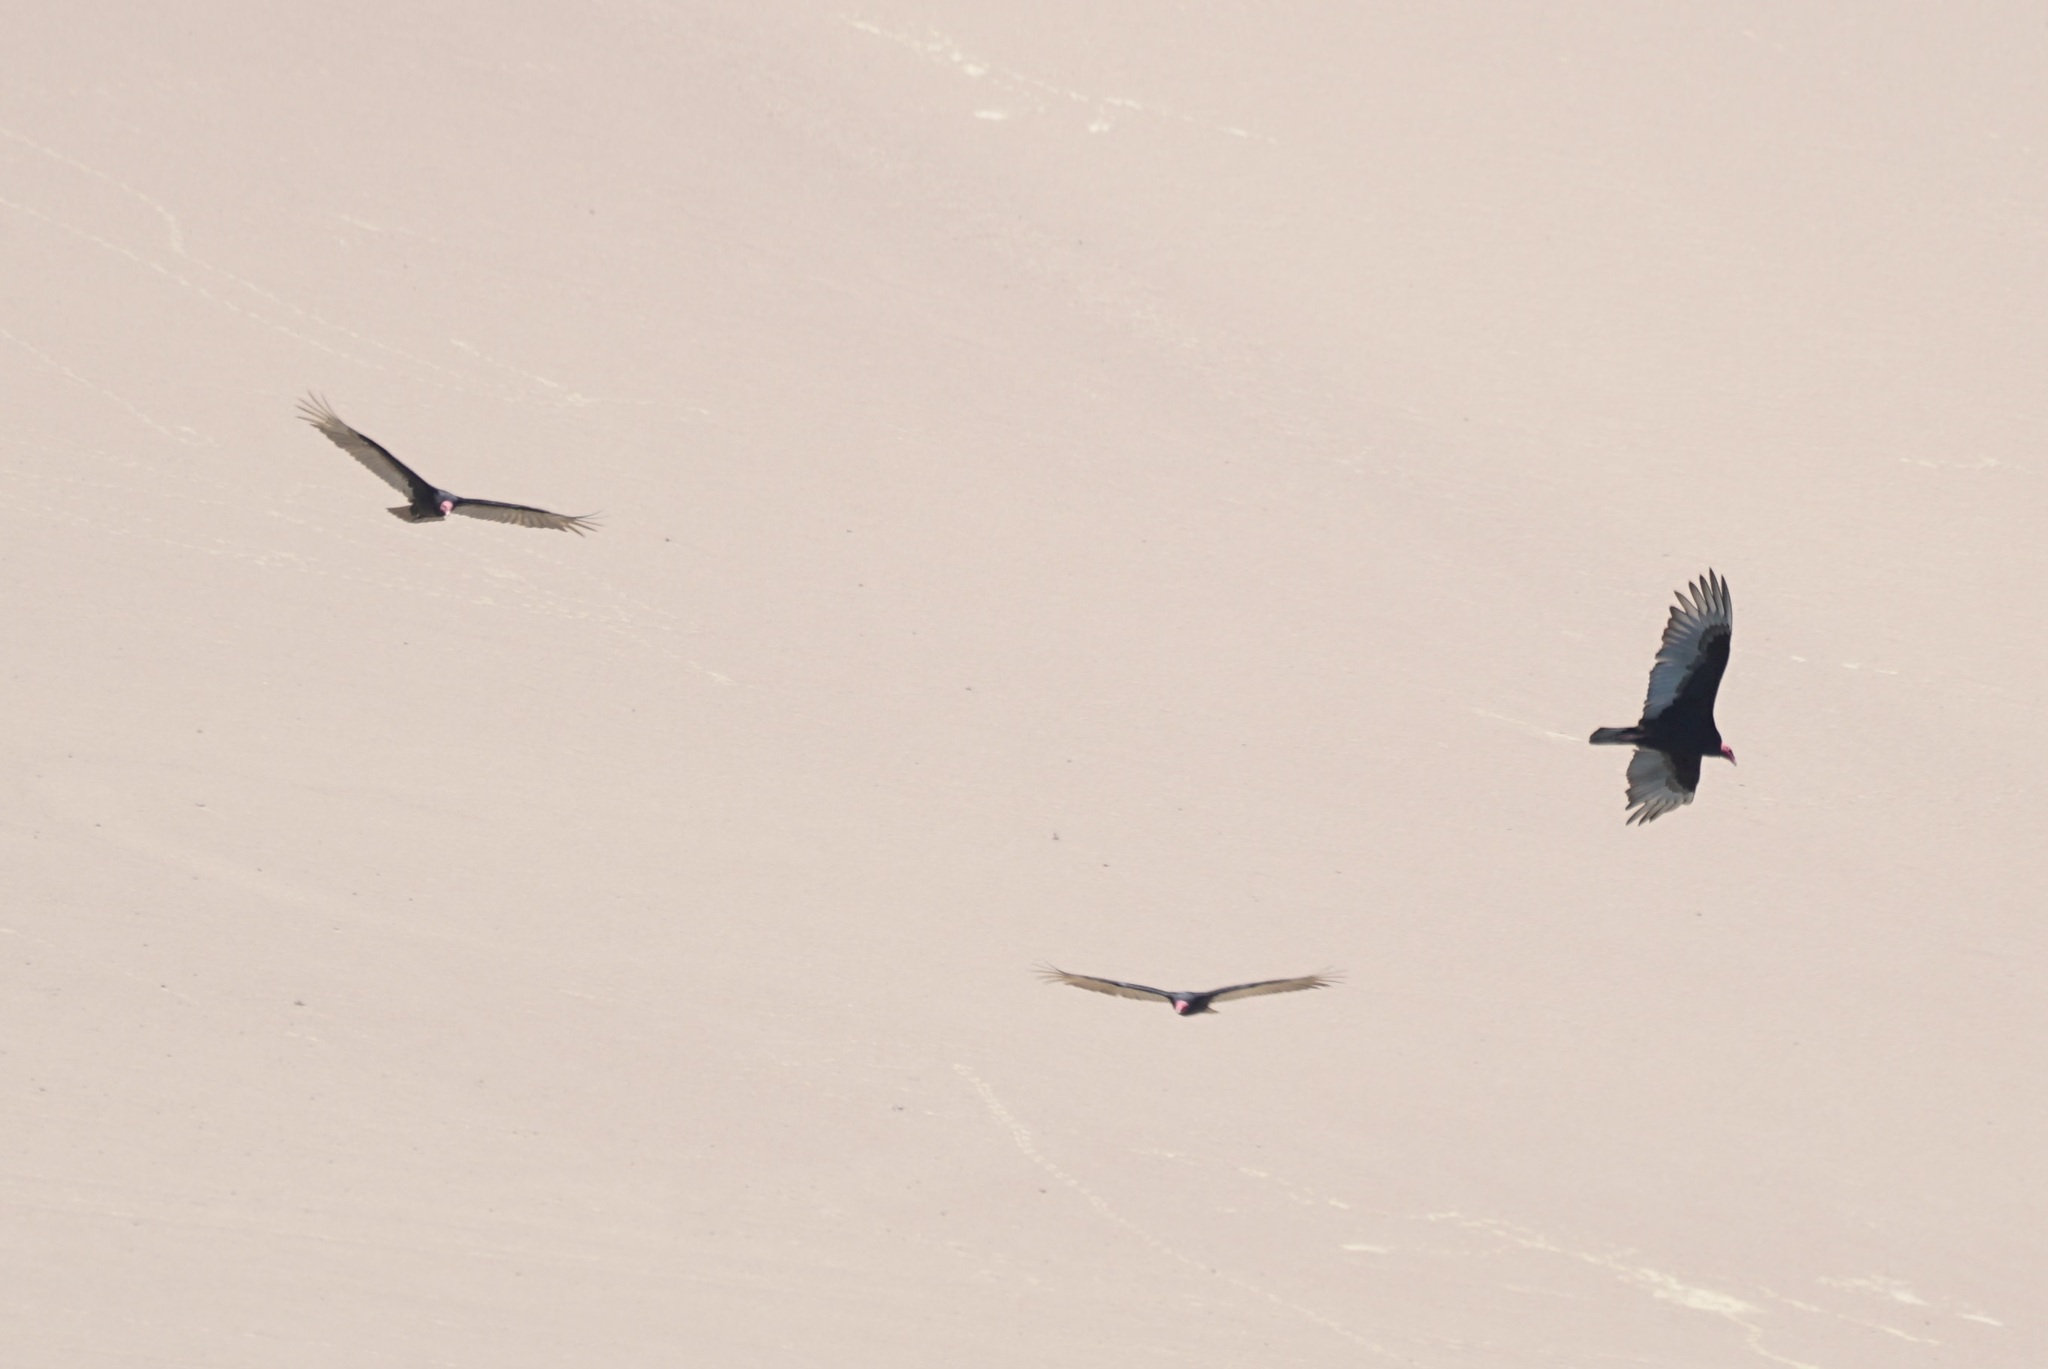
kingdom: Animalia
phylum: Chordata
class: Aves
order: Accipitriformes
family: Cathartidae
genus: Cathartes
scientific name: Cathartes aura
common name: Turkey vulture
